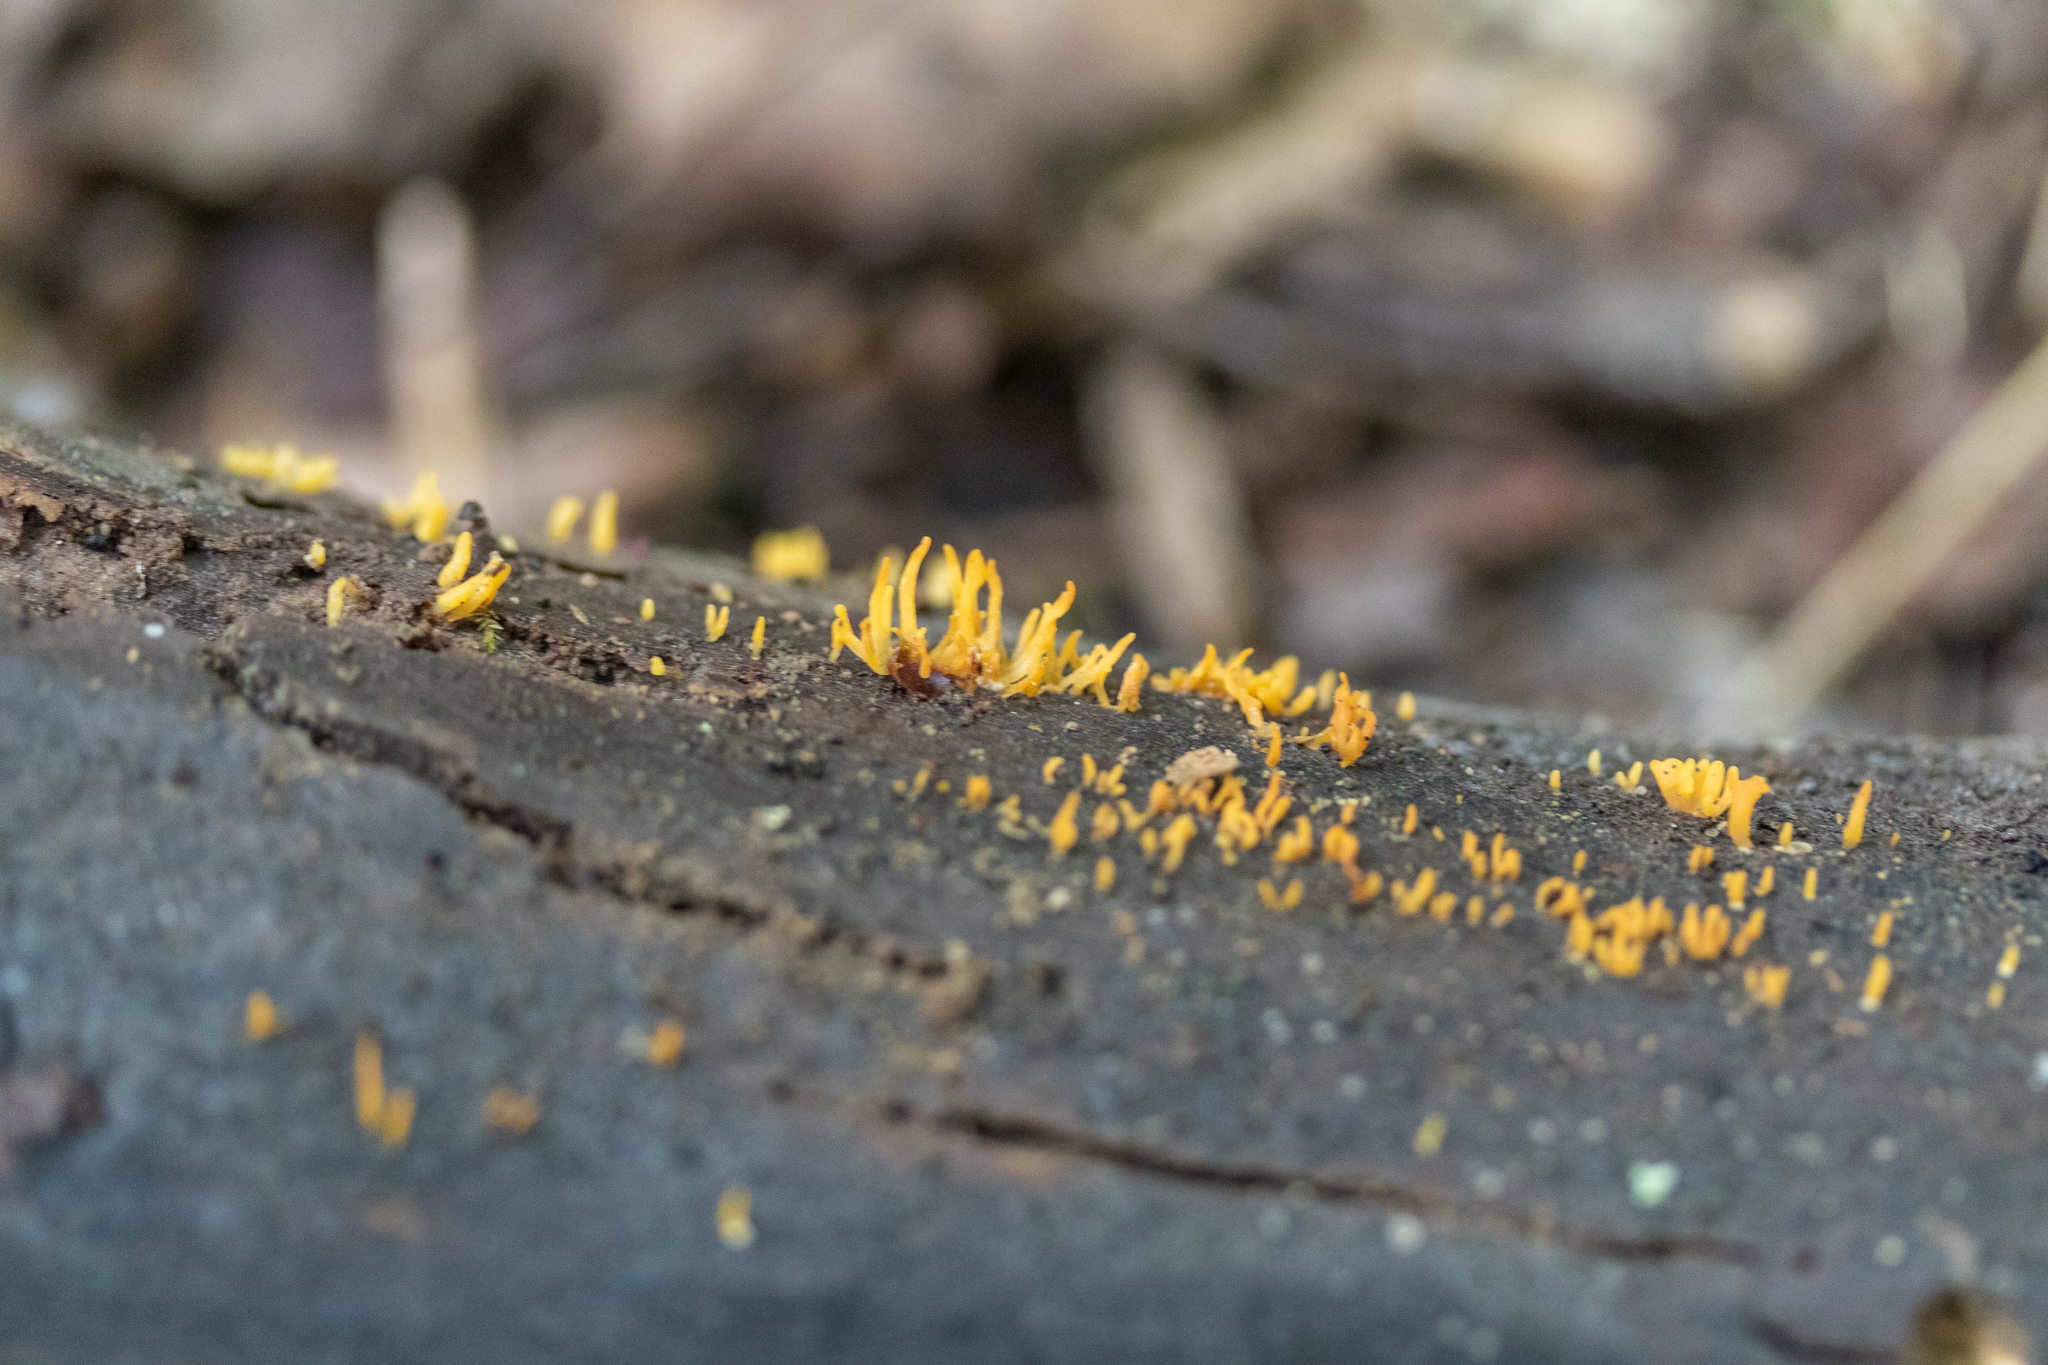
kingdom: Fungi
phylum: Basidiomycota
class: Dacrymycetes
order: Dacrymycetales
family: Dacrymycetaceae
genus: Calocera
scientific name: Calocera cornea
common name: Small stagshorn
